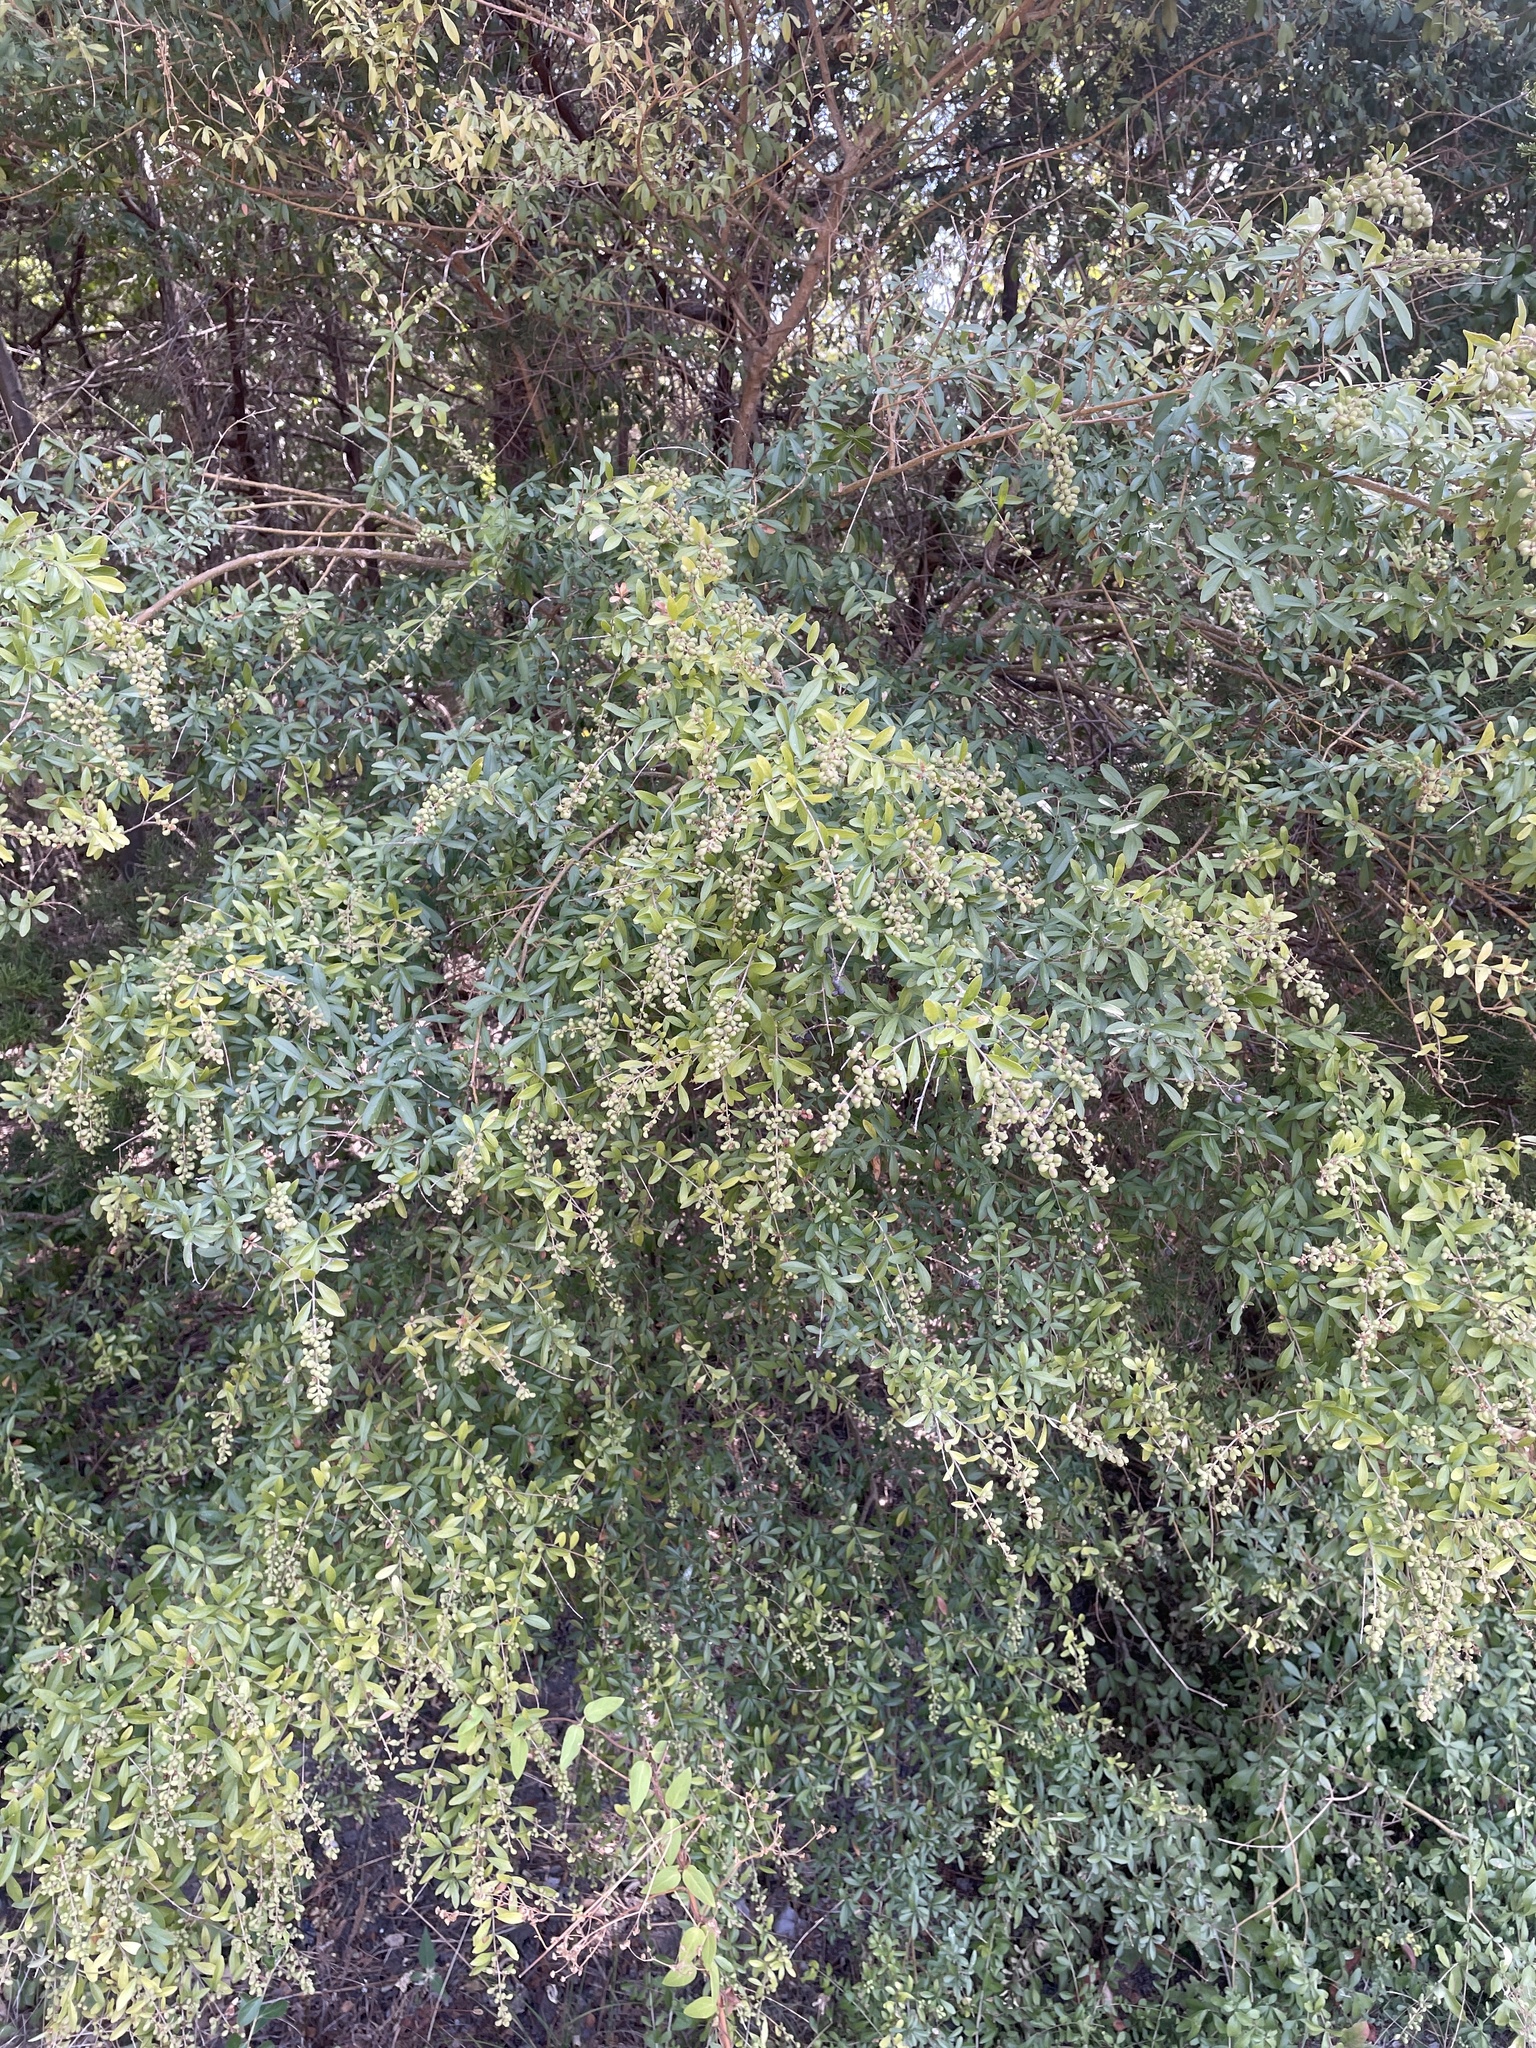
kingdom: Plantae
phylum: Tracheophyta
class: Magnoliopsida
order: Lamiales
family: Oleaceae
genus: Ligustrum
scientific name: Ligustrum quihoui
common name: Waxyleaf privet
